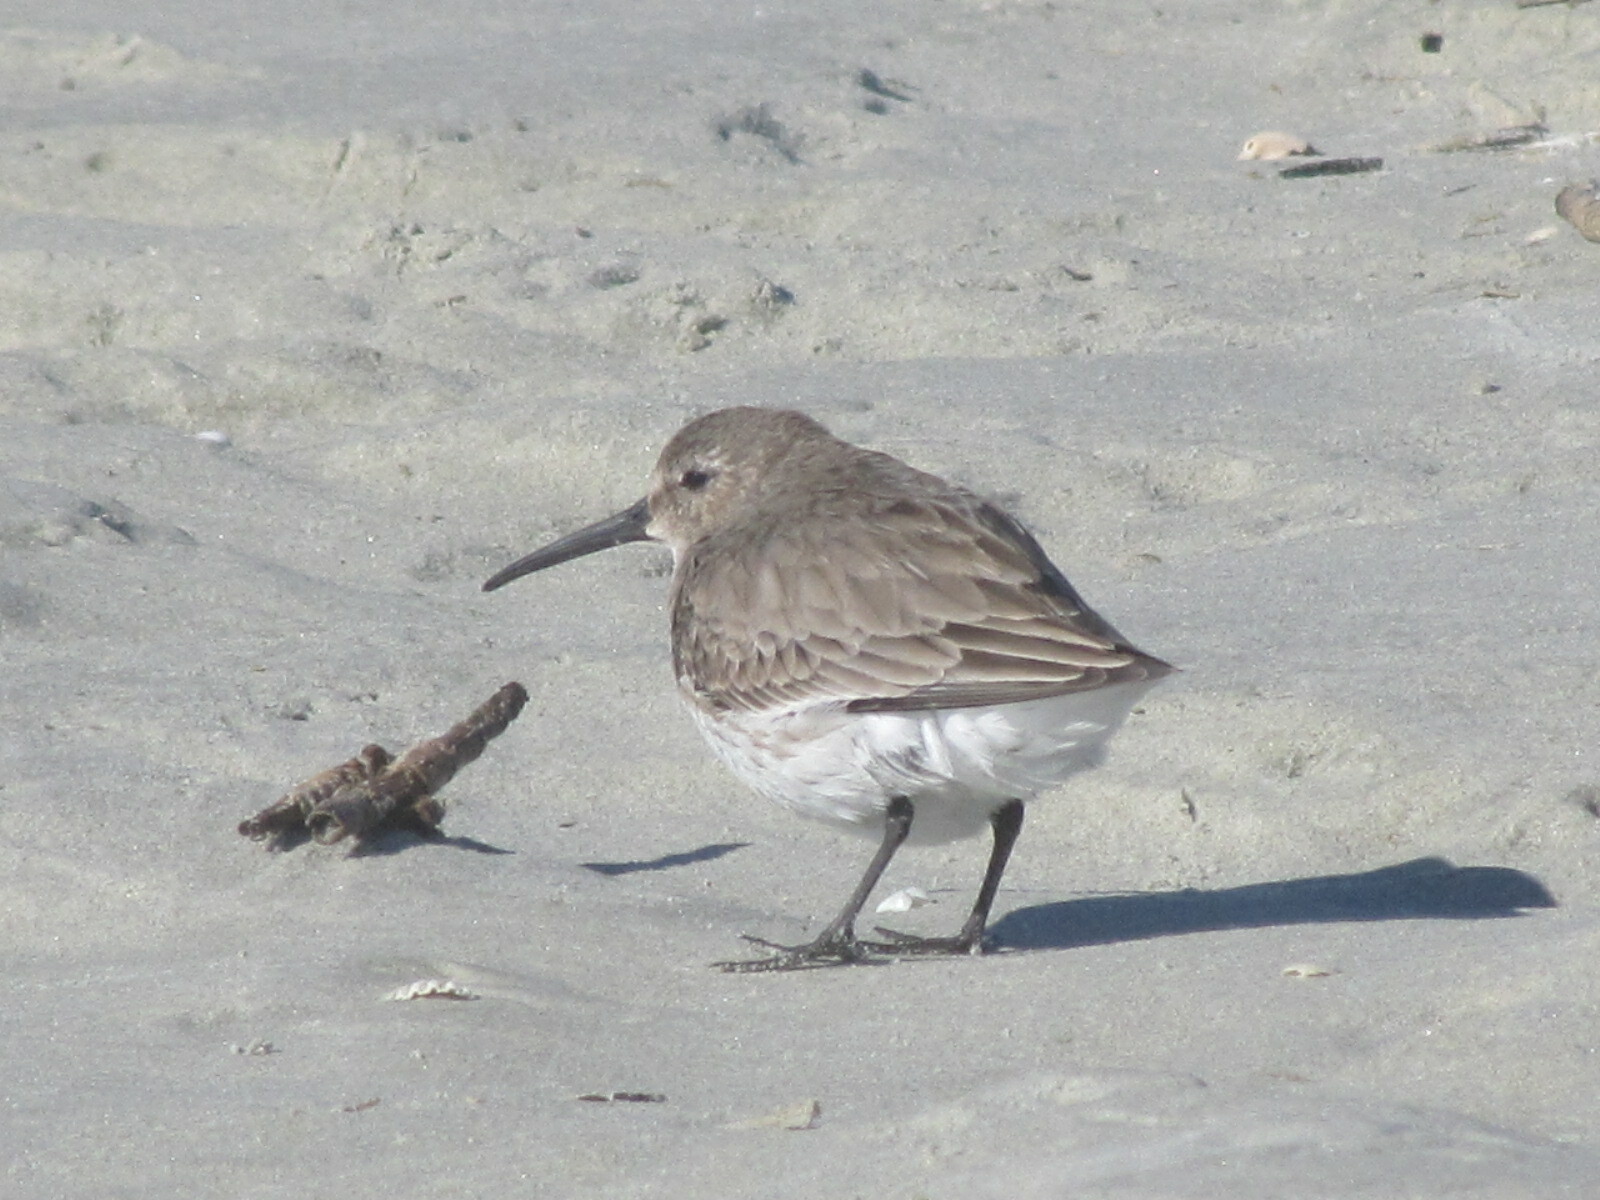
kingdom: Animalia
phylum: Chordata
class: Aves
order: Charadriiformes
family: Scolopacidae
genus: Calidris
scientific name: Calidris alpina
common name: Dunlin
